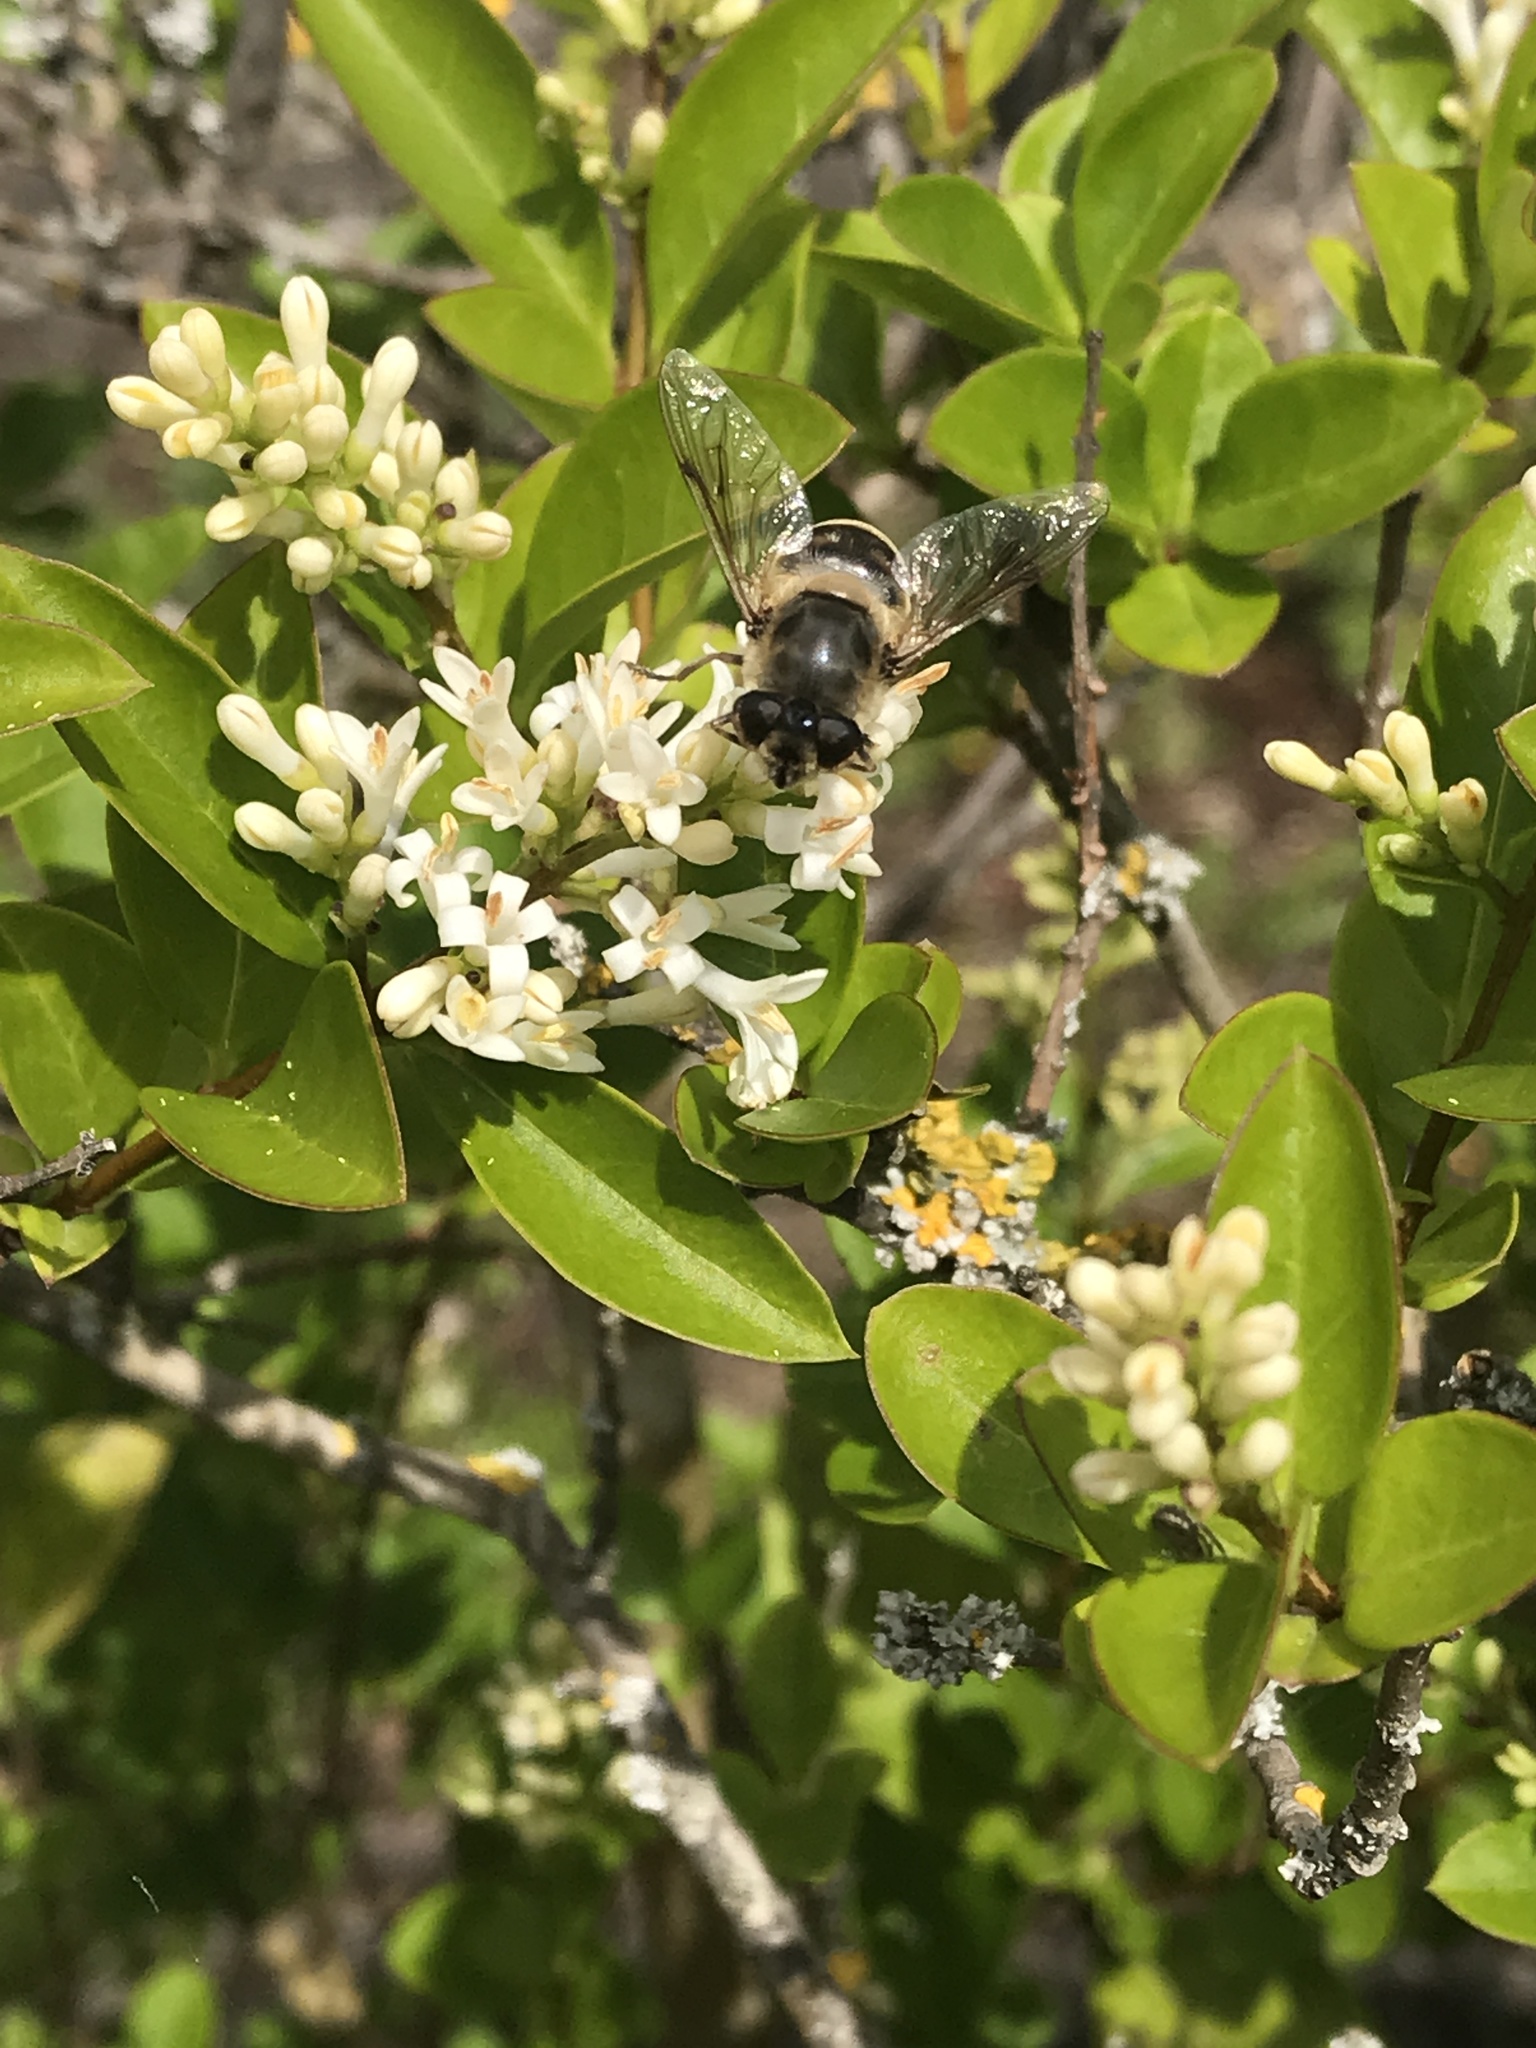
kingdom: Animalia
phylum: Arthropoda
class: Insecta
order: Diptera
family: Syrphidae
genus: Eristalis
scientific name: Eristalis tenax
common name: Drone fly
